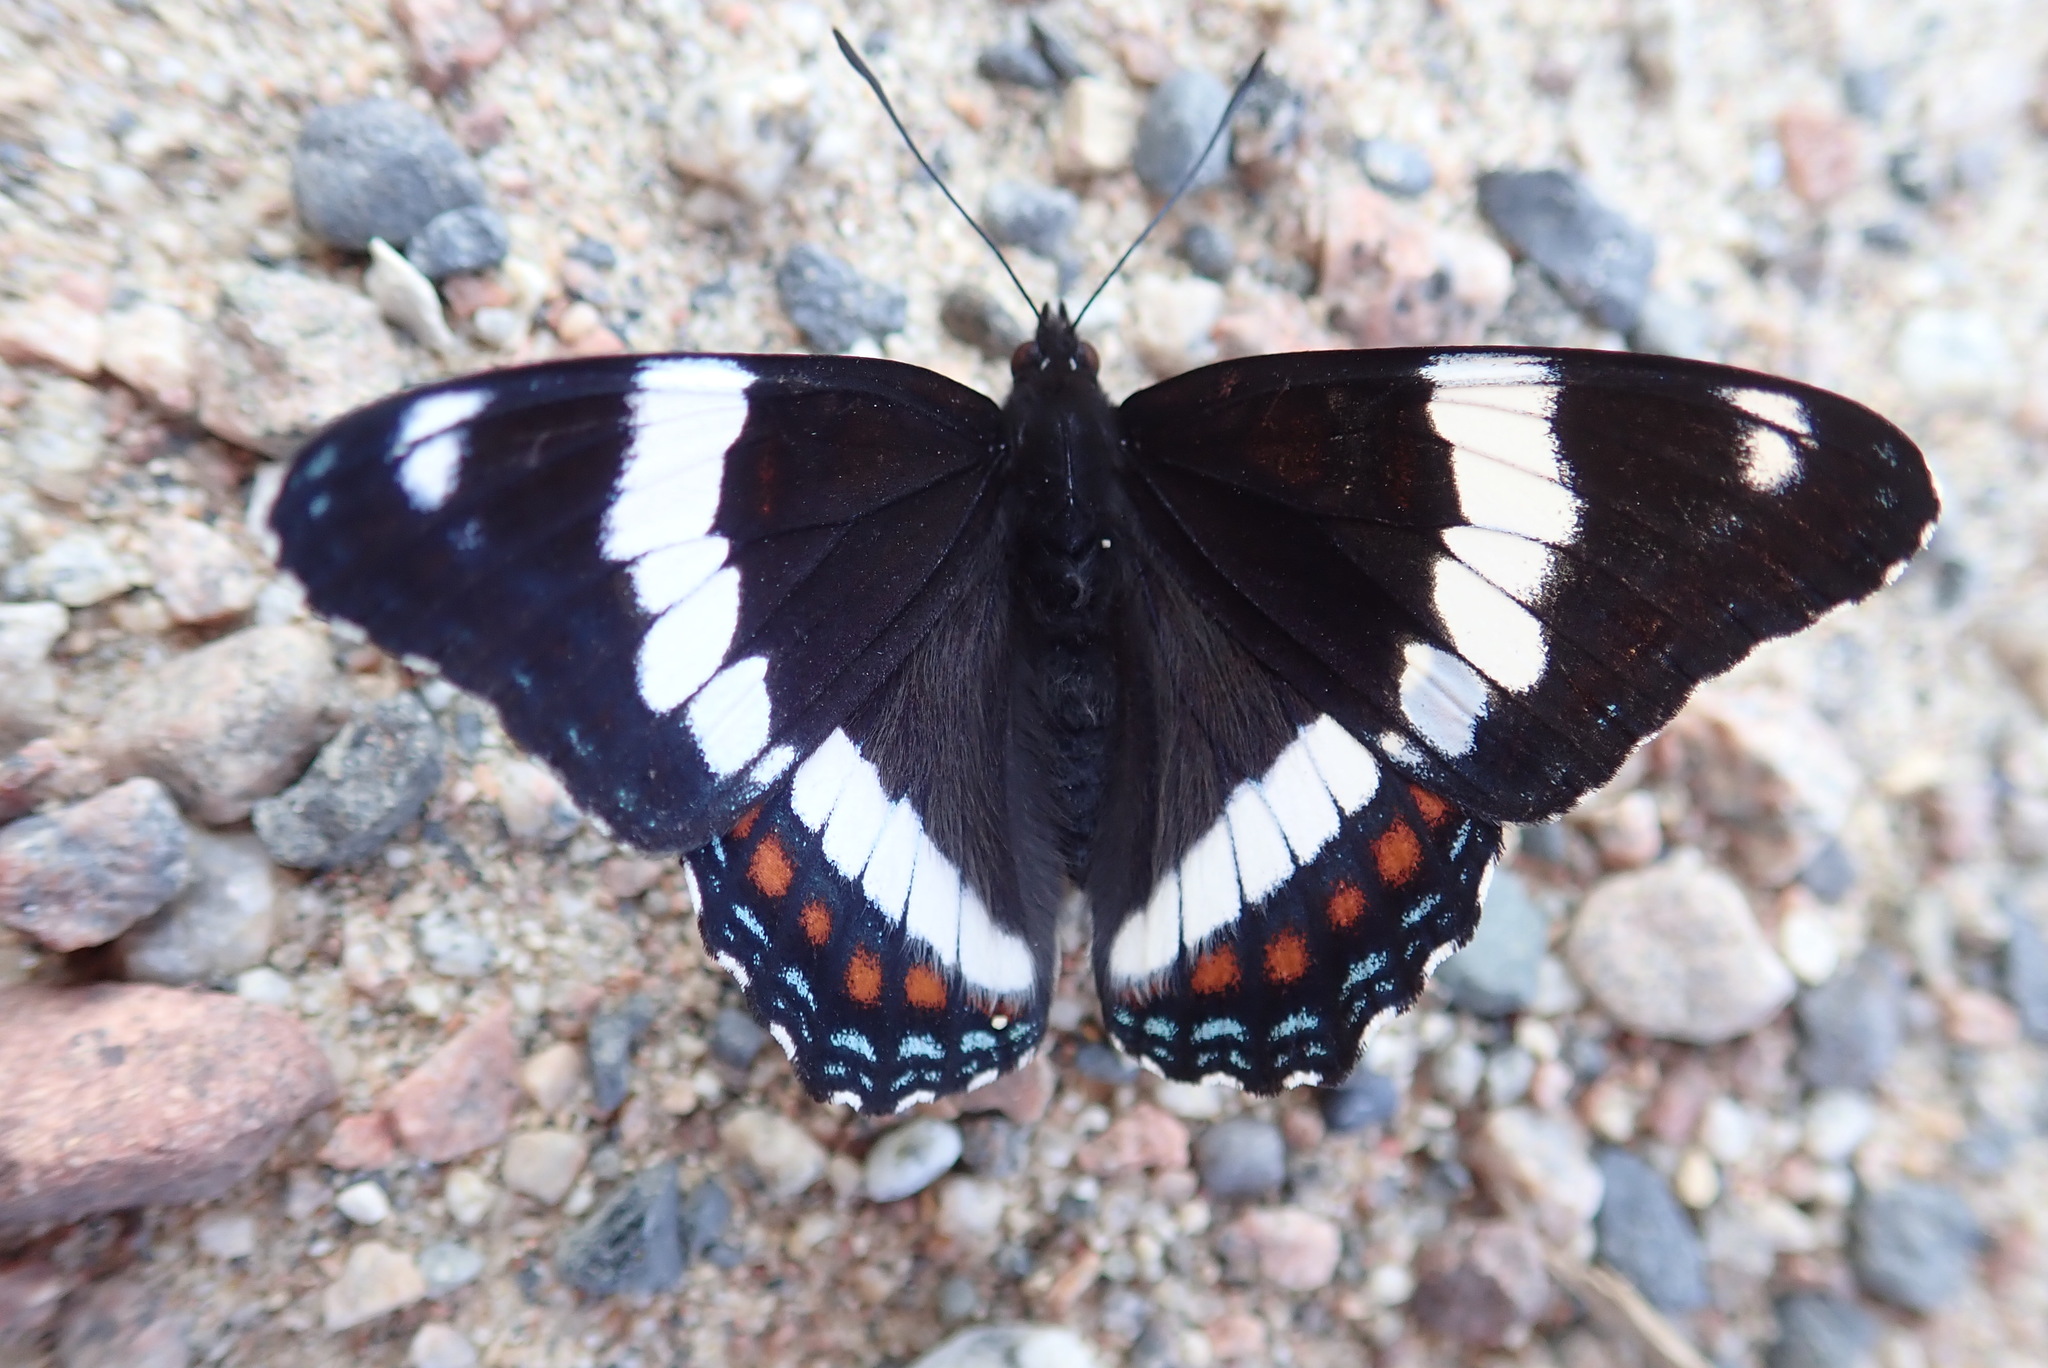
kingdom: Animalia
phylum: Arthropoda
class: Insecta
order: Lepidoptera
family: Nymphalidae
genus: Limenitis
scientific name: Limenitis arthemis
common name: Red-spotted admiral
